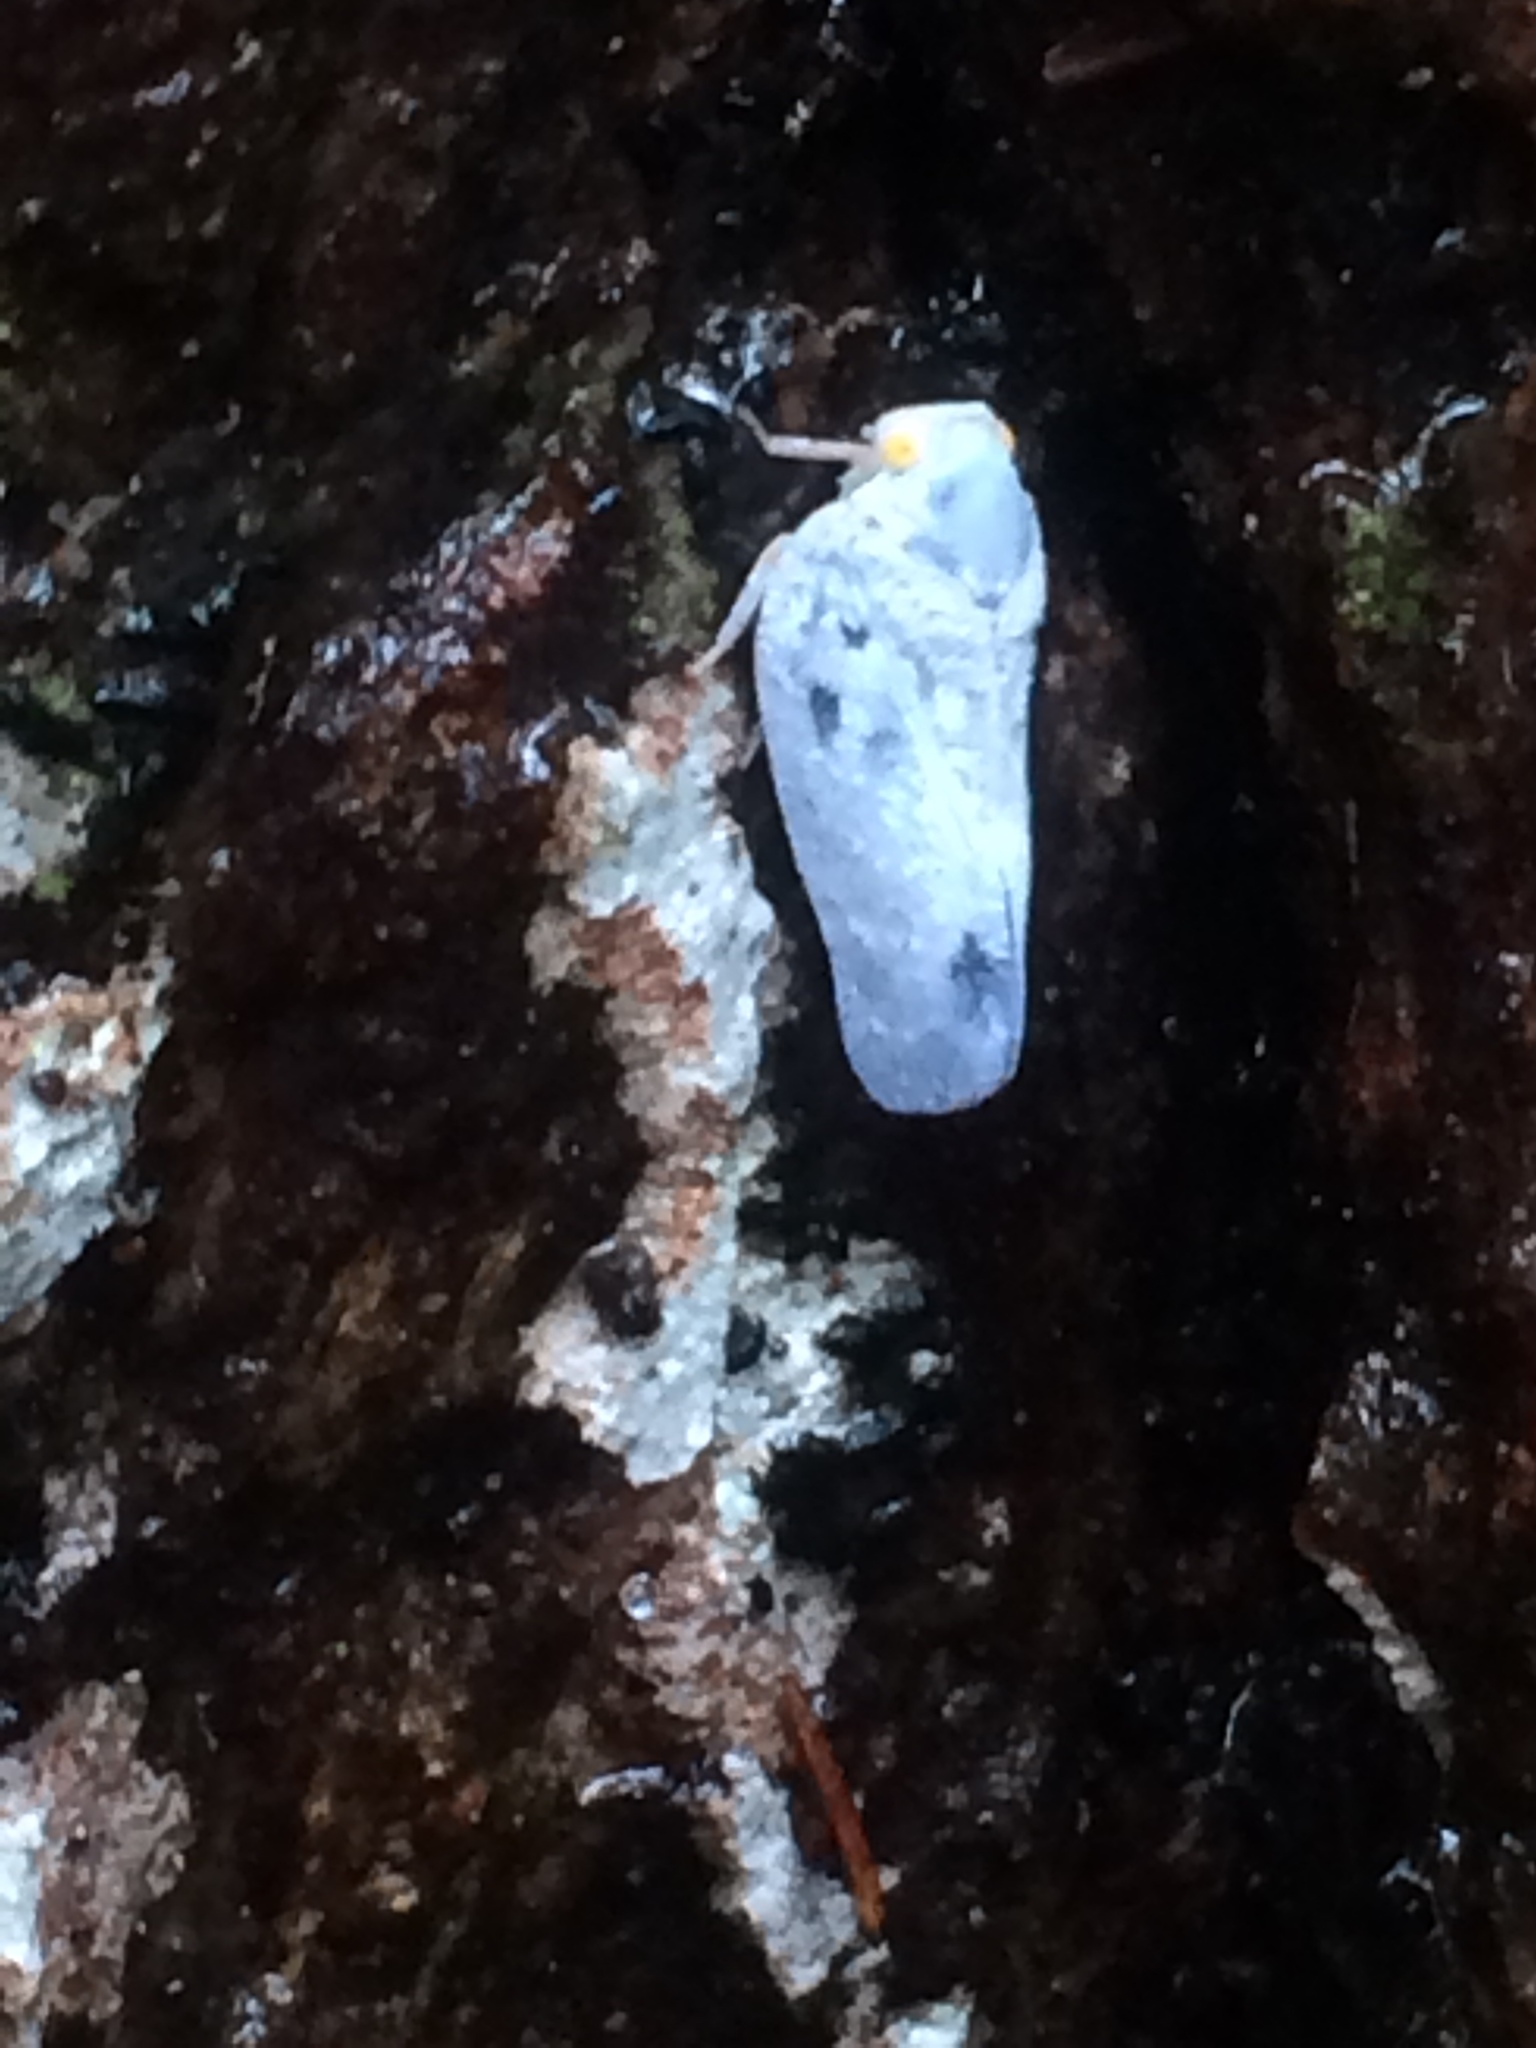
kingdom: Animalia
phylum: Arthropoda
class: Insecta
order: Hemiptera
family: Flatidae
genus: Metcalfa
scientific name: Metcalfa pruinosa
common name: Citrus flatid planthopper
